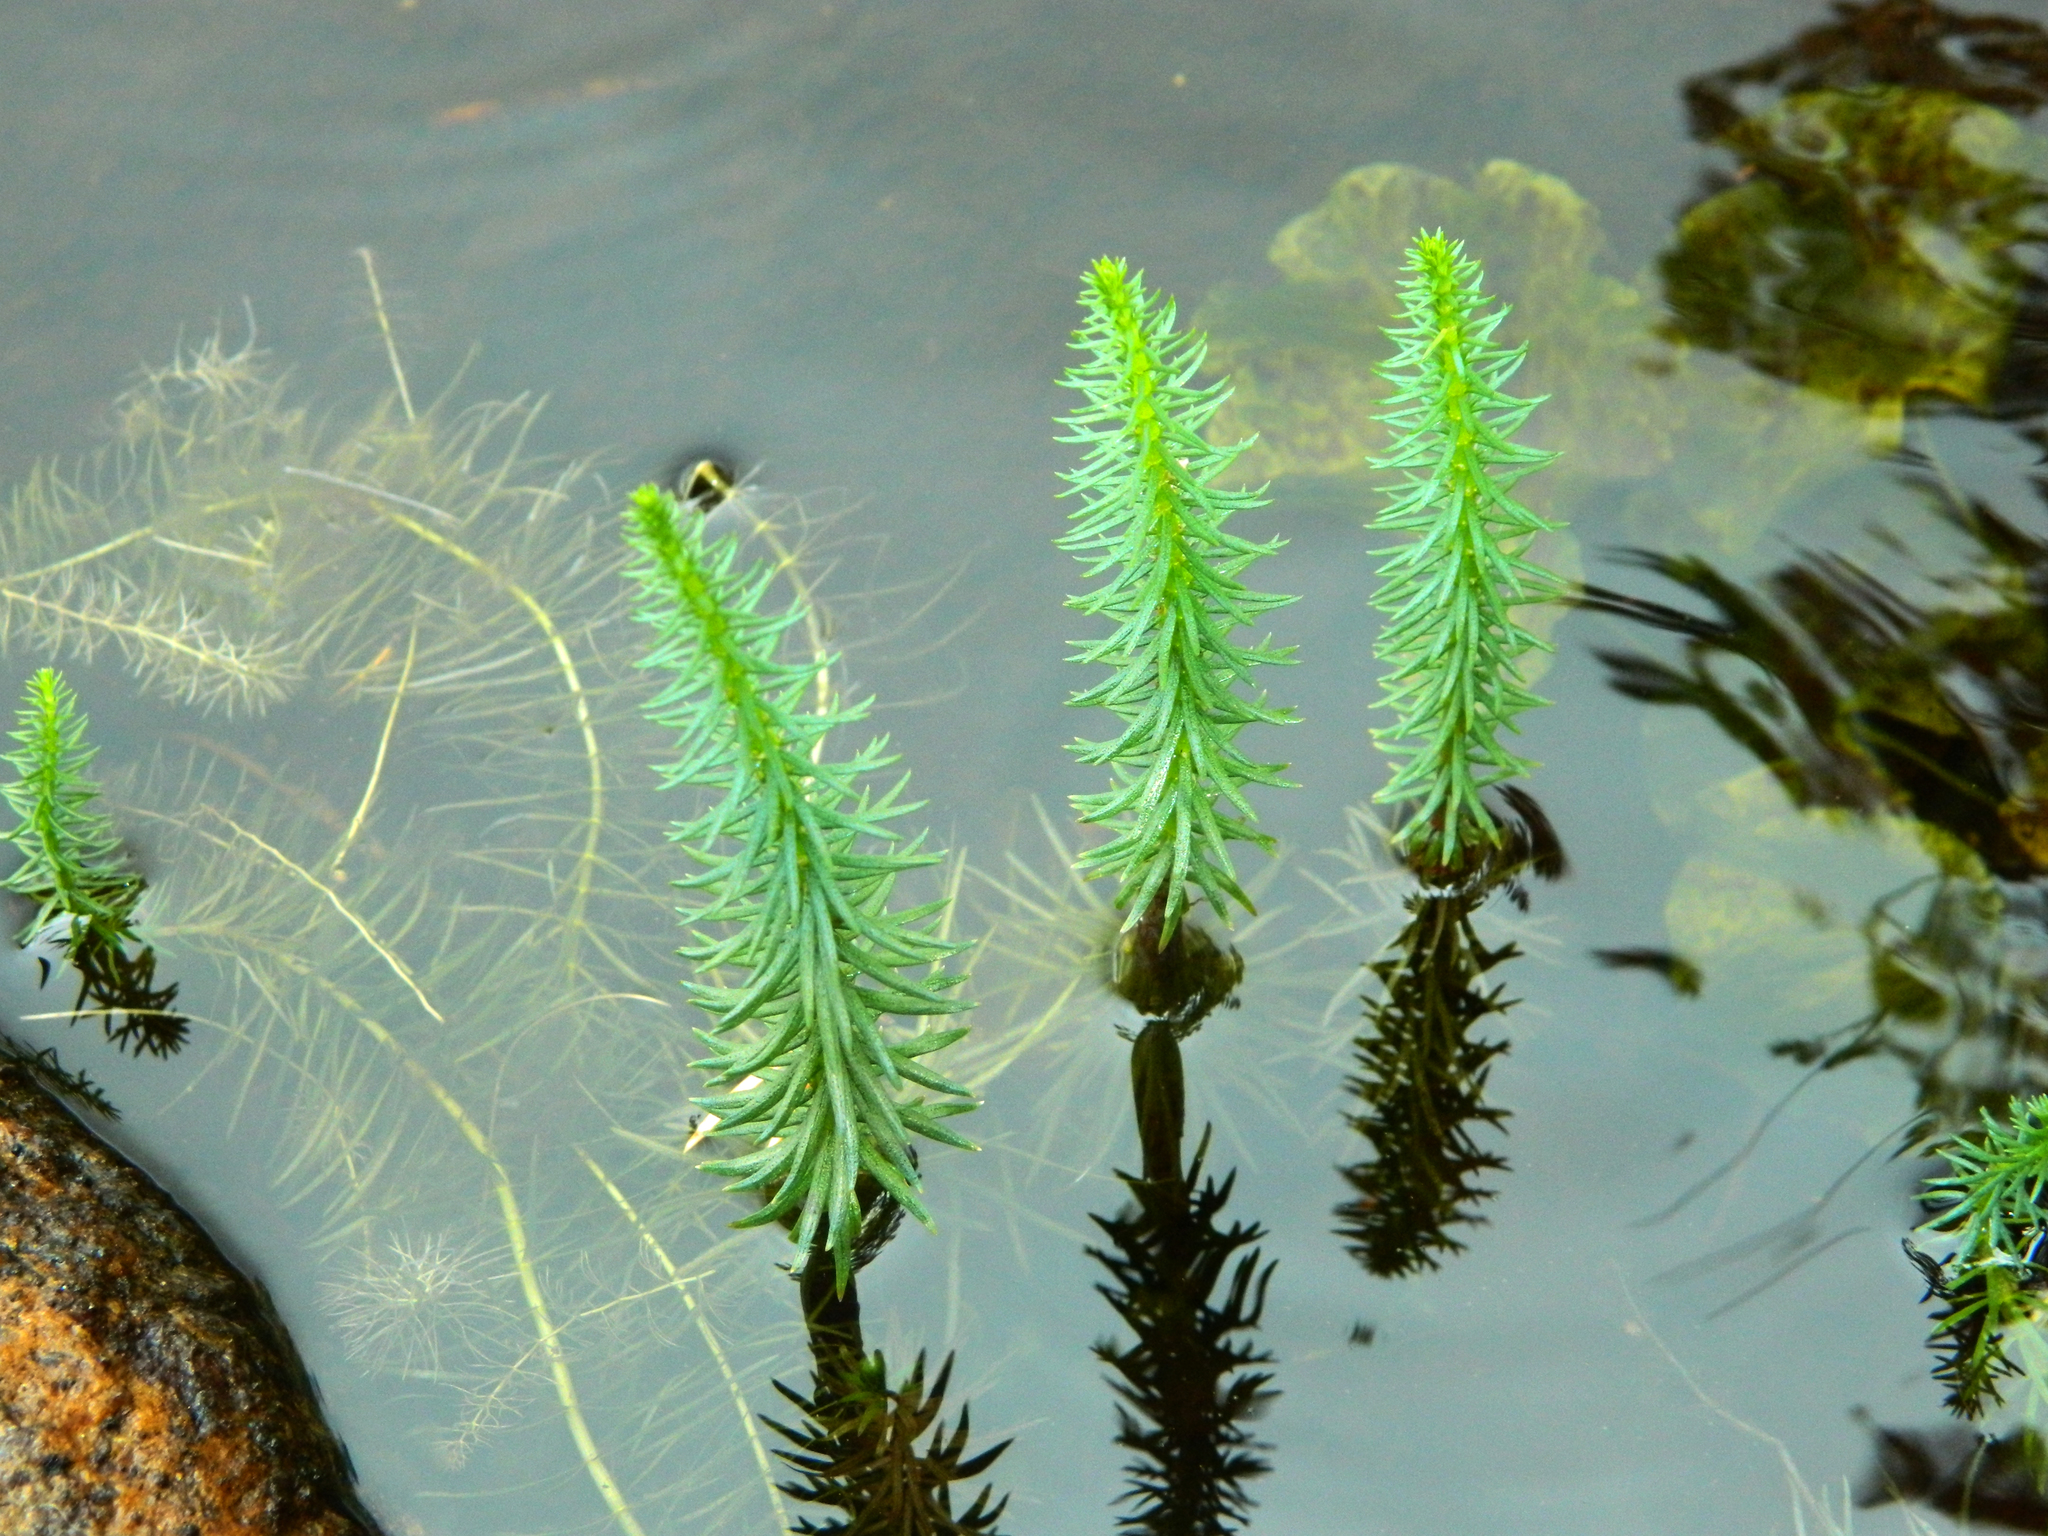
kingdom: Plantae
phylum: Tracheophyta
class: Magnoliopsida
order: Lamiales
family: Plantaginaceae
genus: Hippuris
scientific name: Hippuris vulgaris
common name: Mare's-tail
